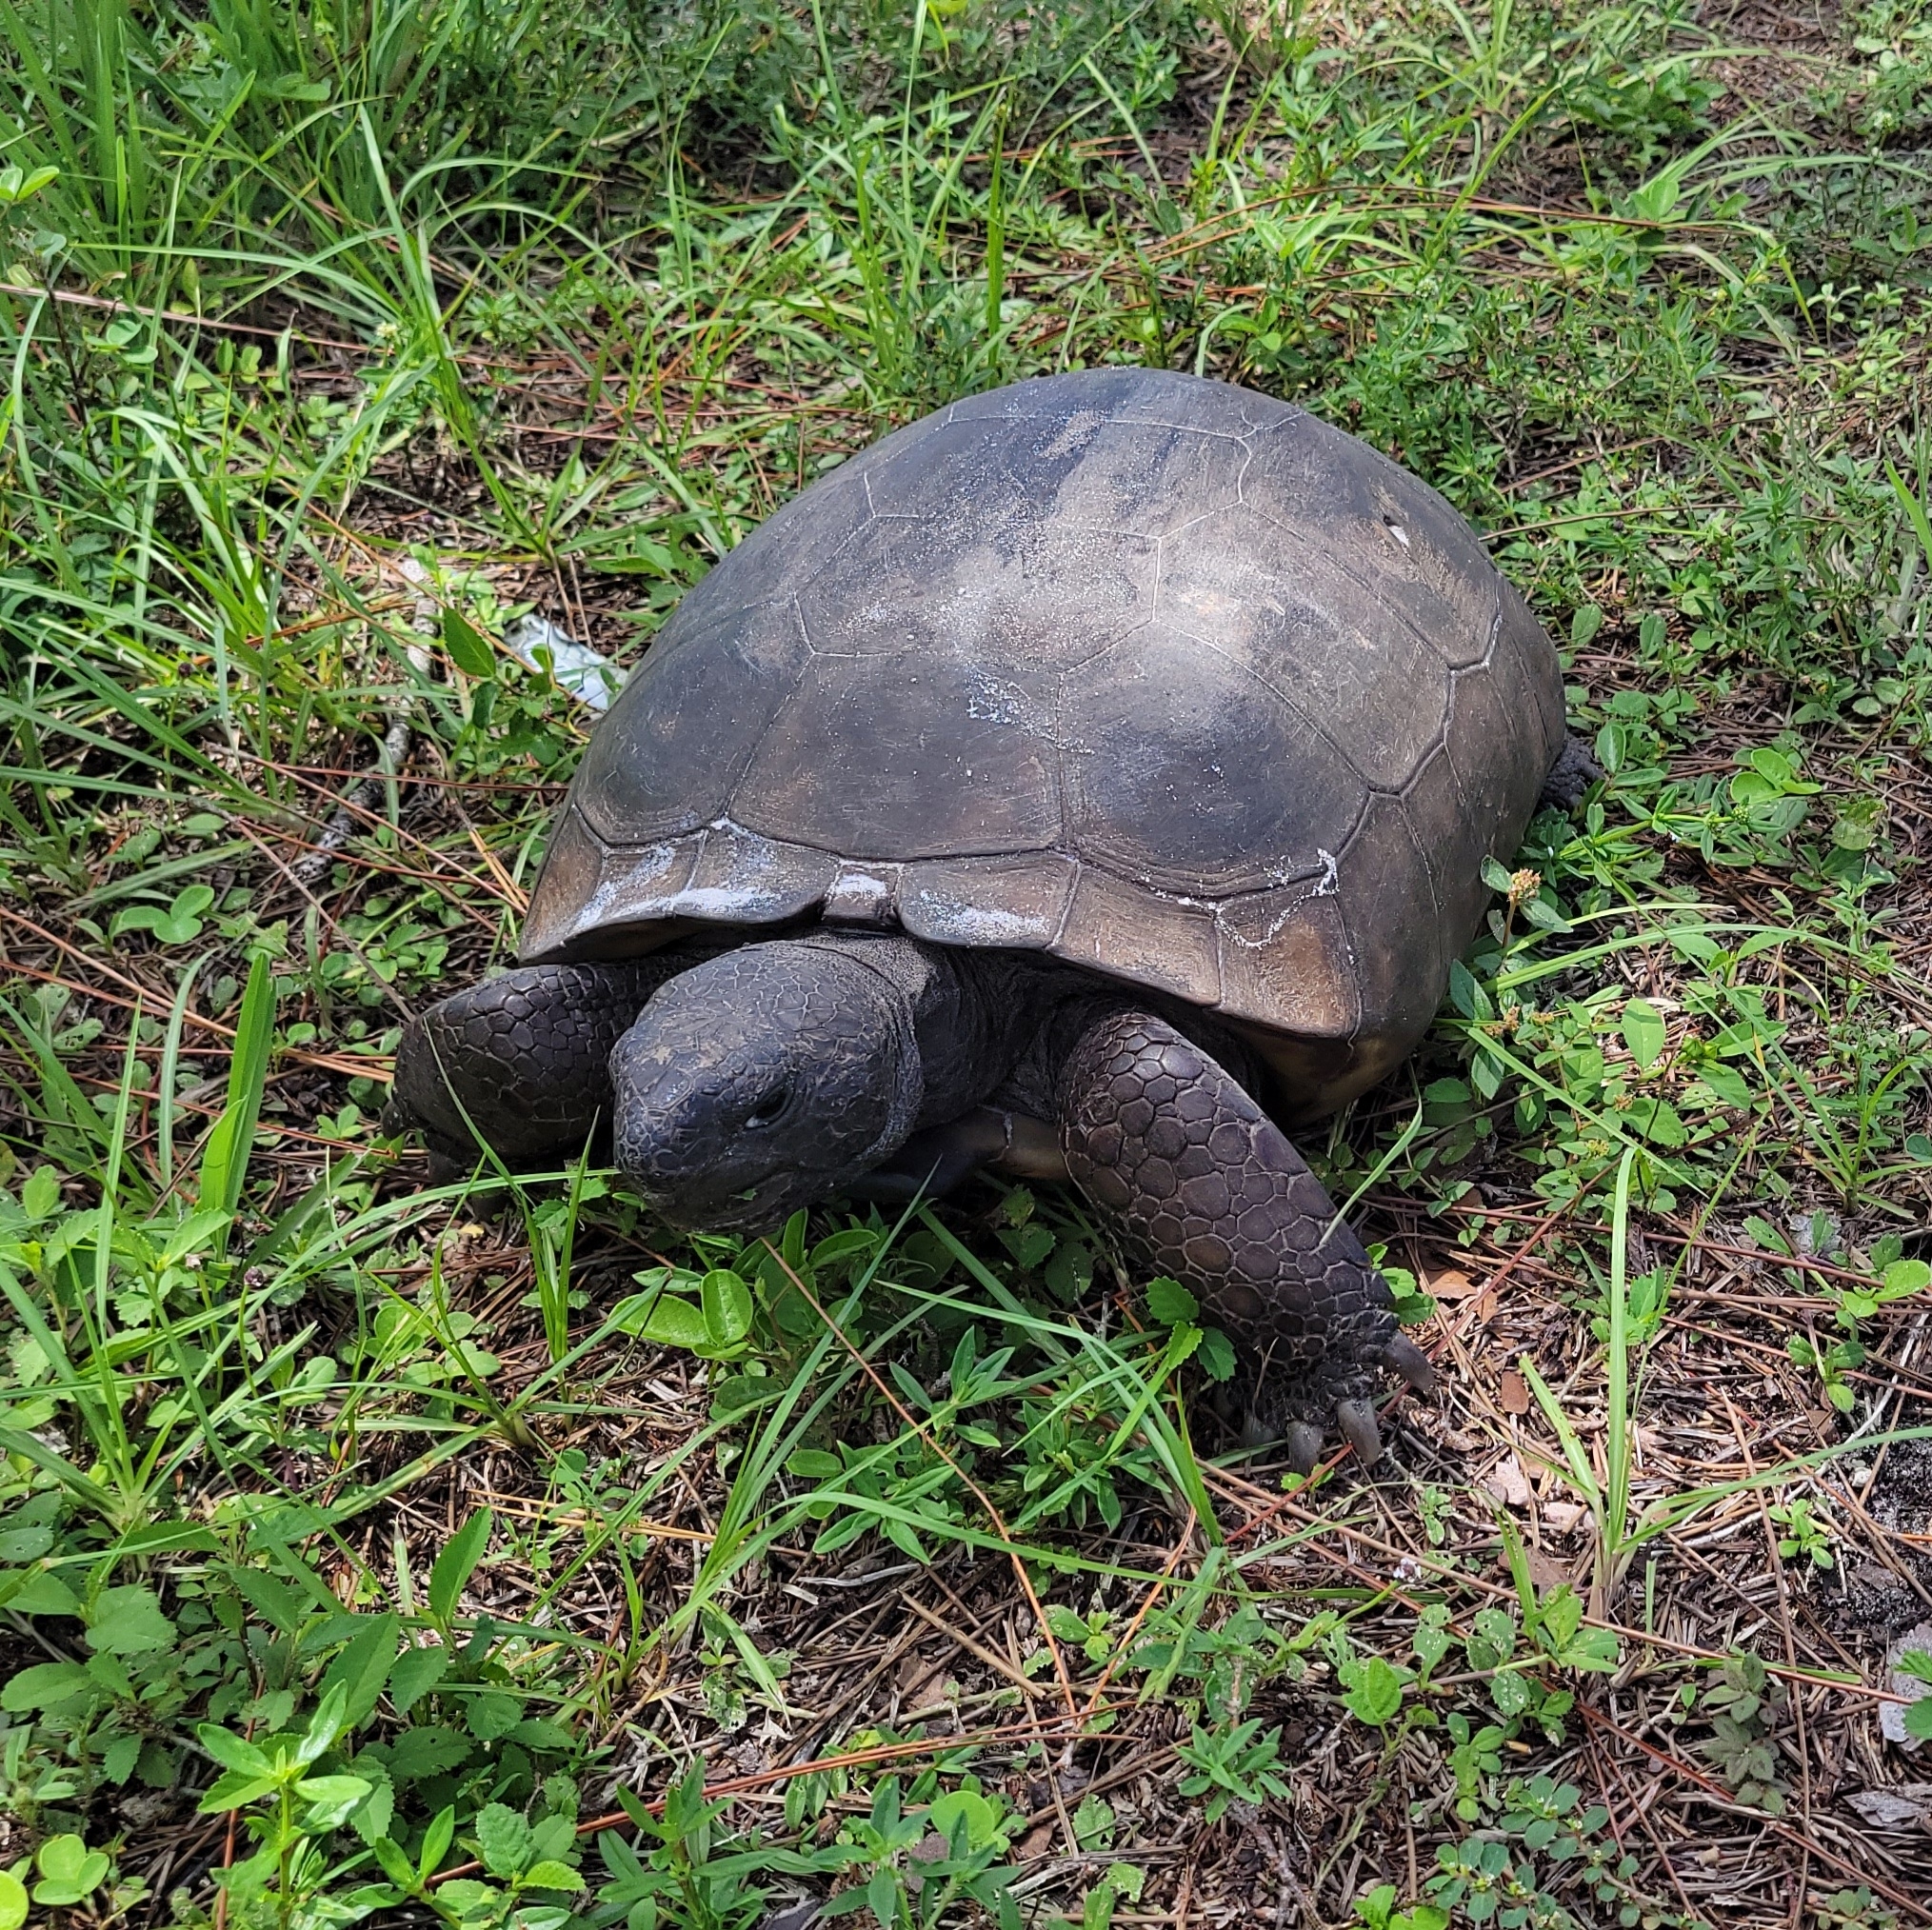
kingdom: Animalia
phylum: Chordata
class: Testudines
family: Testudinidae
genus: Gopherus
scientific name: Gopherus polyphemus
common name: Florida gopher tortoise
